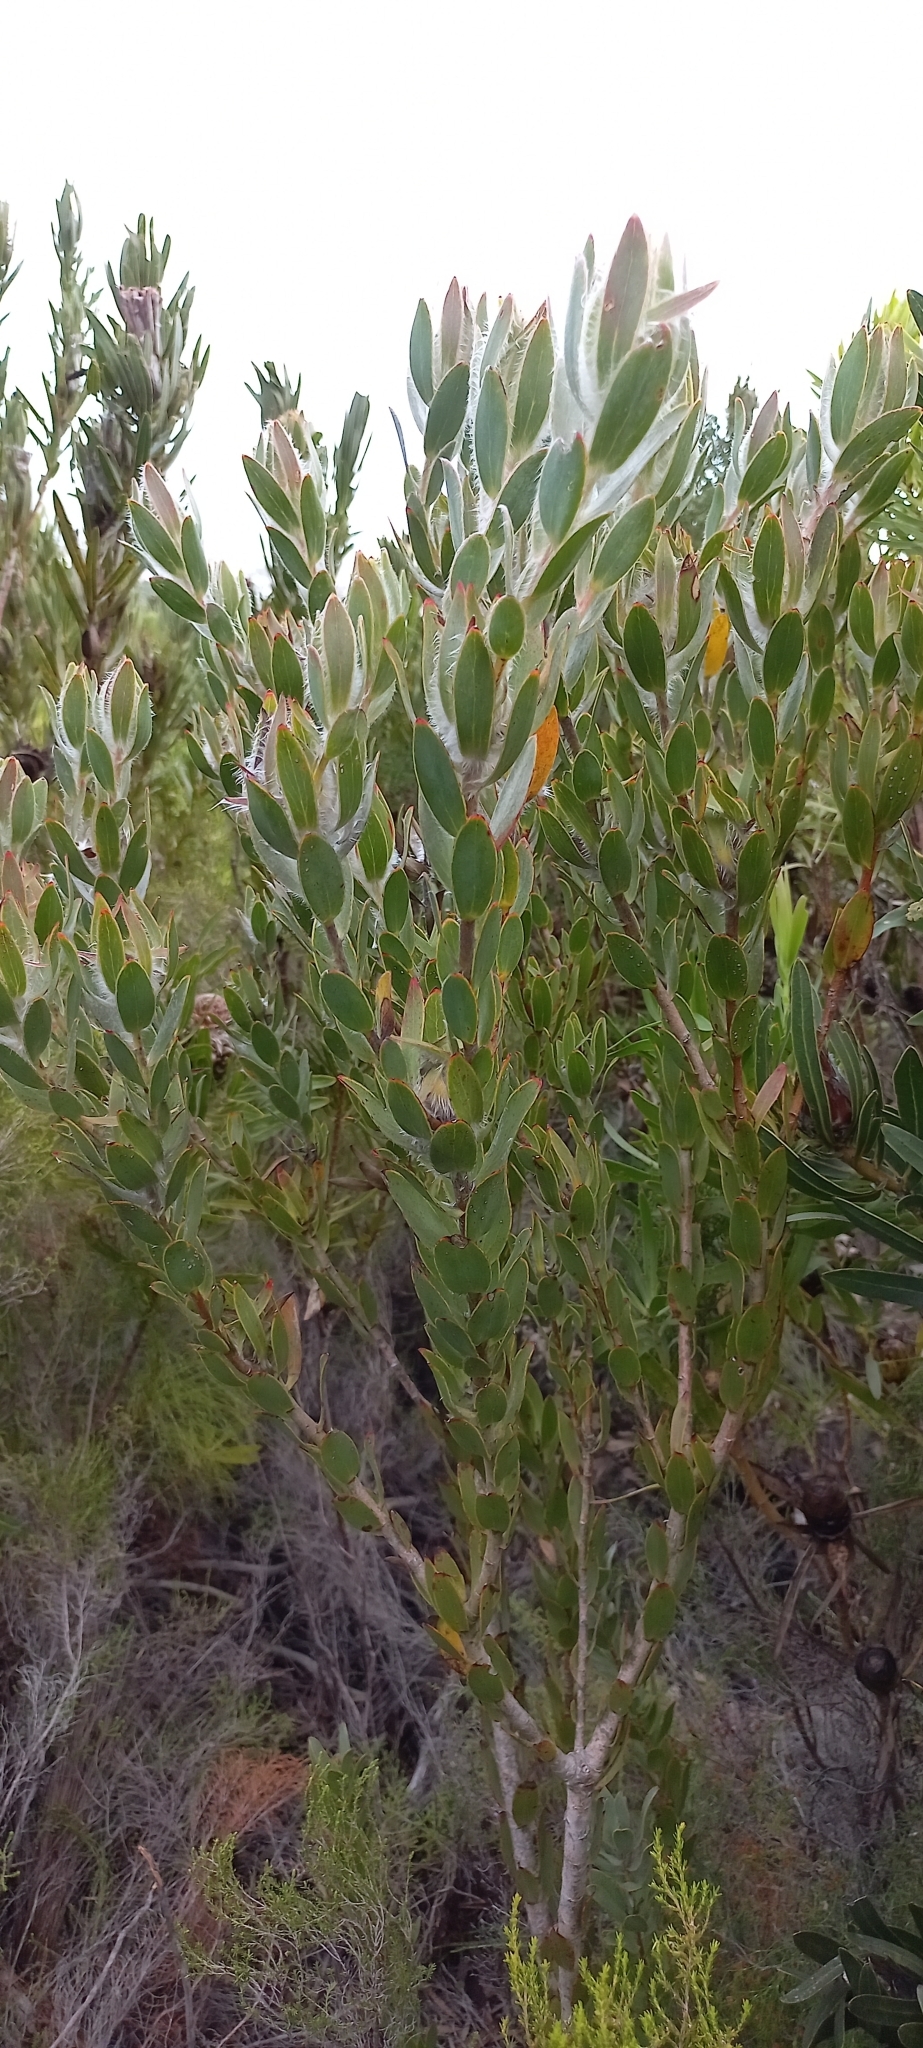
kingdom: Plantae
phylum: Tracheophyta
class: Magnoliopsida
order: Proteales
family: Proteaceae
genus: Leucadendron
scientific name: Leucadendron nervosum
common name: Silky-ruff conebush
